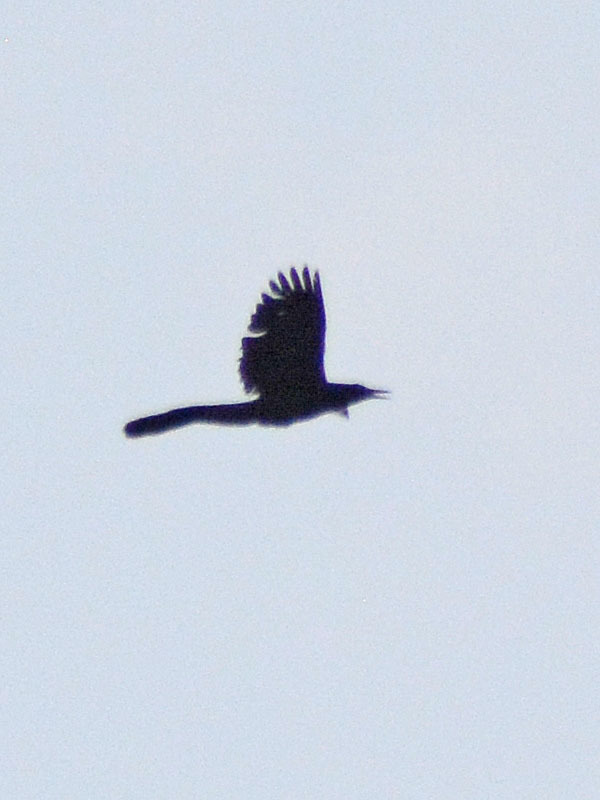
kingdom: Animalia
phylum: Chordata
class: Aves
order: Passeriformes
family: Icteridae
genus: Quiscalus
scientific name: Quiscalus mexicanus
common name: Great-tailed grackle
